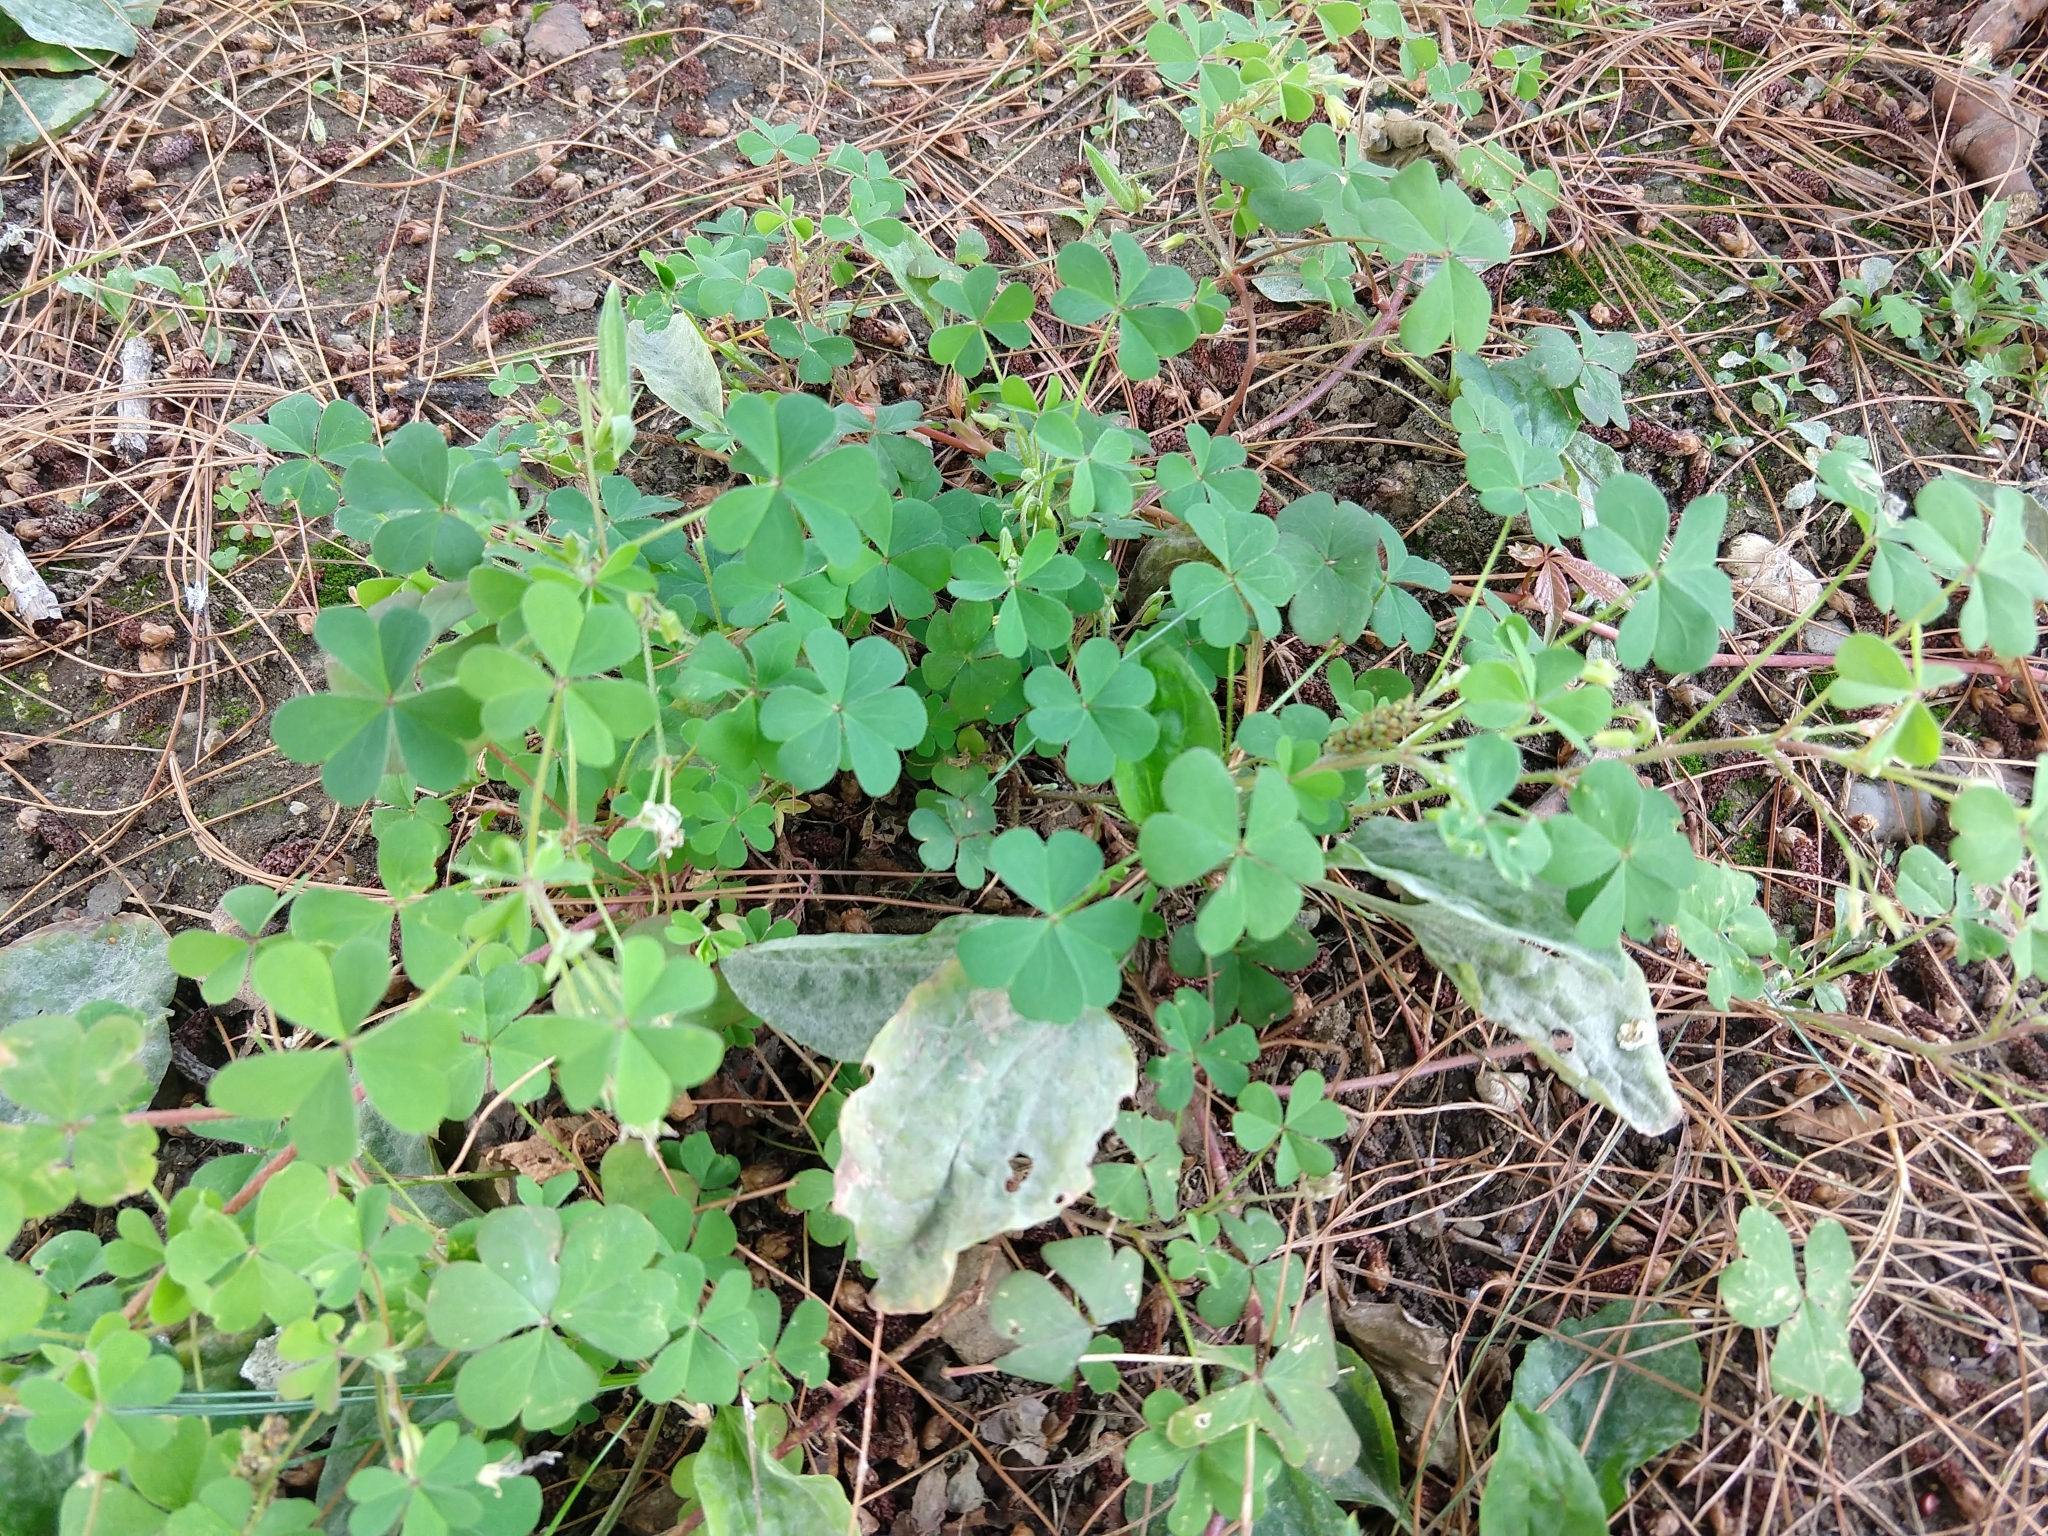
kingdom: Plantae
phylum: Tracheophyta
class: Magnoliopsida
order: Oxalidales
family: Oxalidaceae
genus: Oxalis
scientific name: Oxalis corniculata
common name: Procumbent yellow-sorrel
